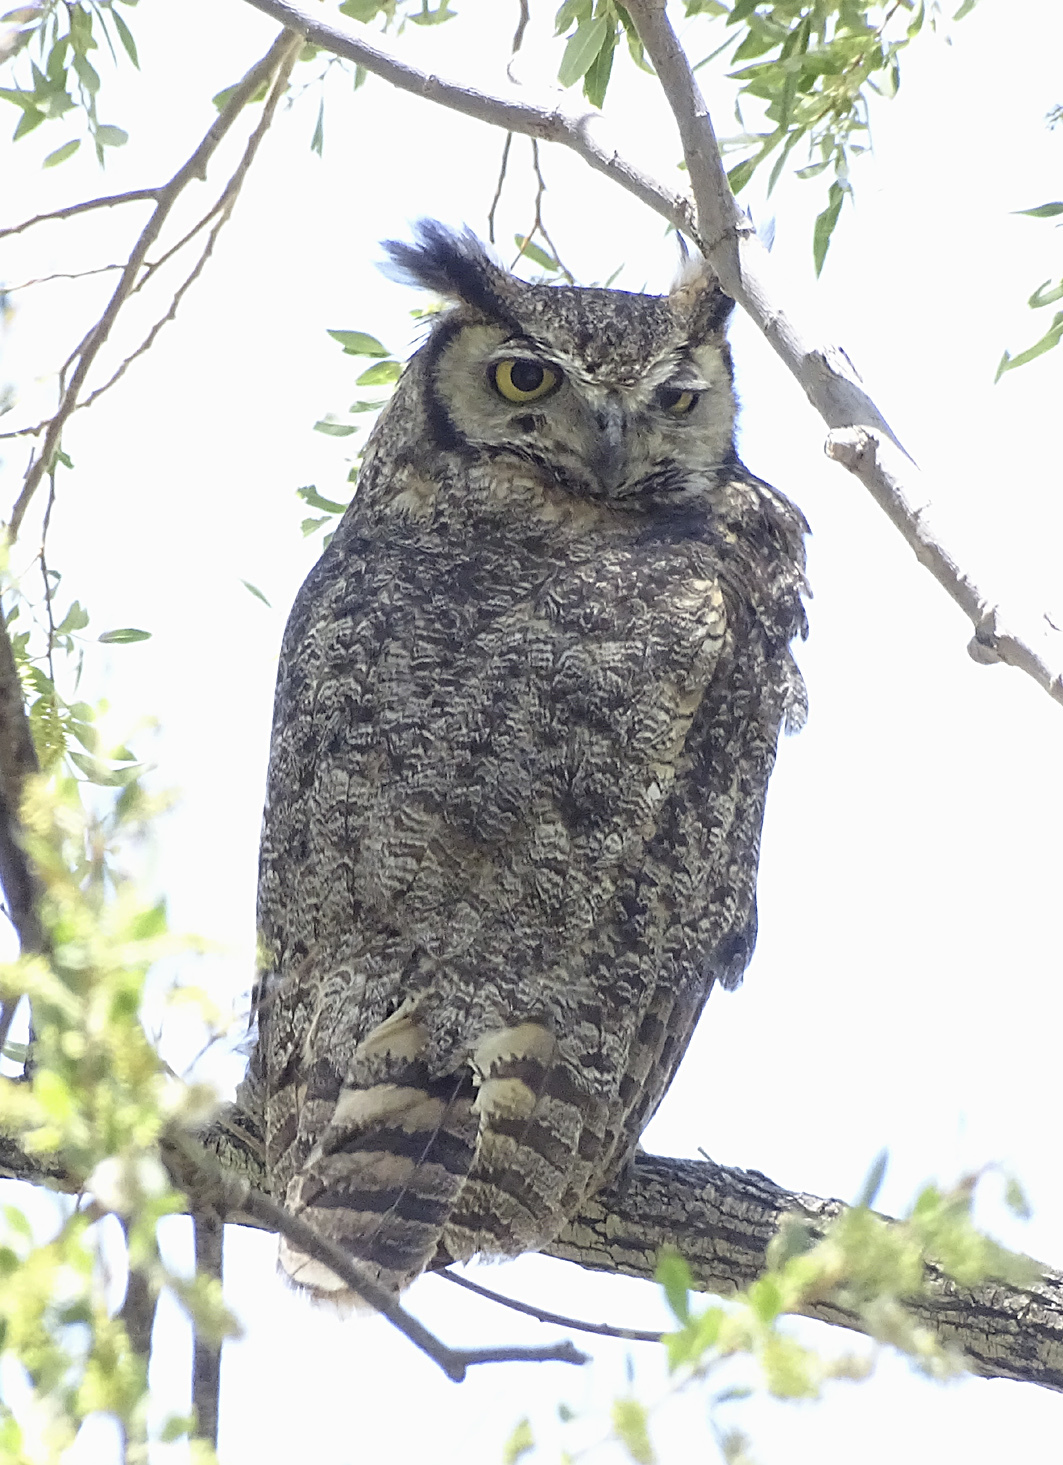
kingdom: Animalia
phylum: Chordata
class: Aves
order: Strigiformes
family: Strigidae
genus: Bubo
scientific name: Bubo virginianus
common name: Great horned owl
